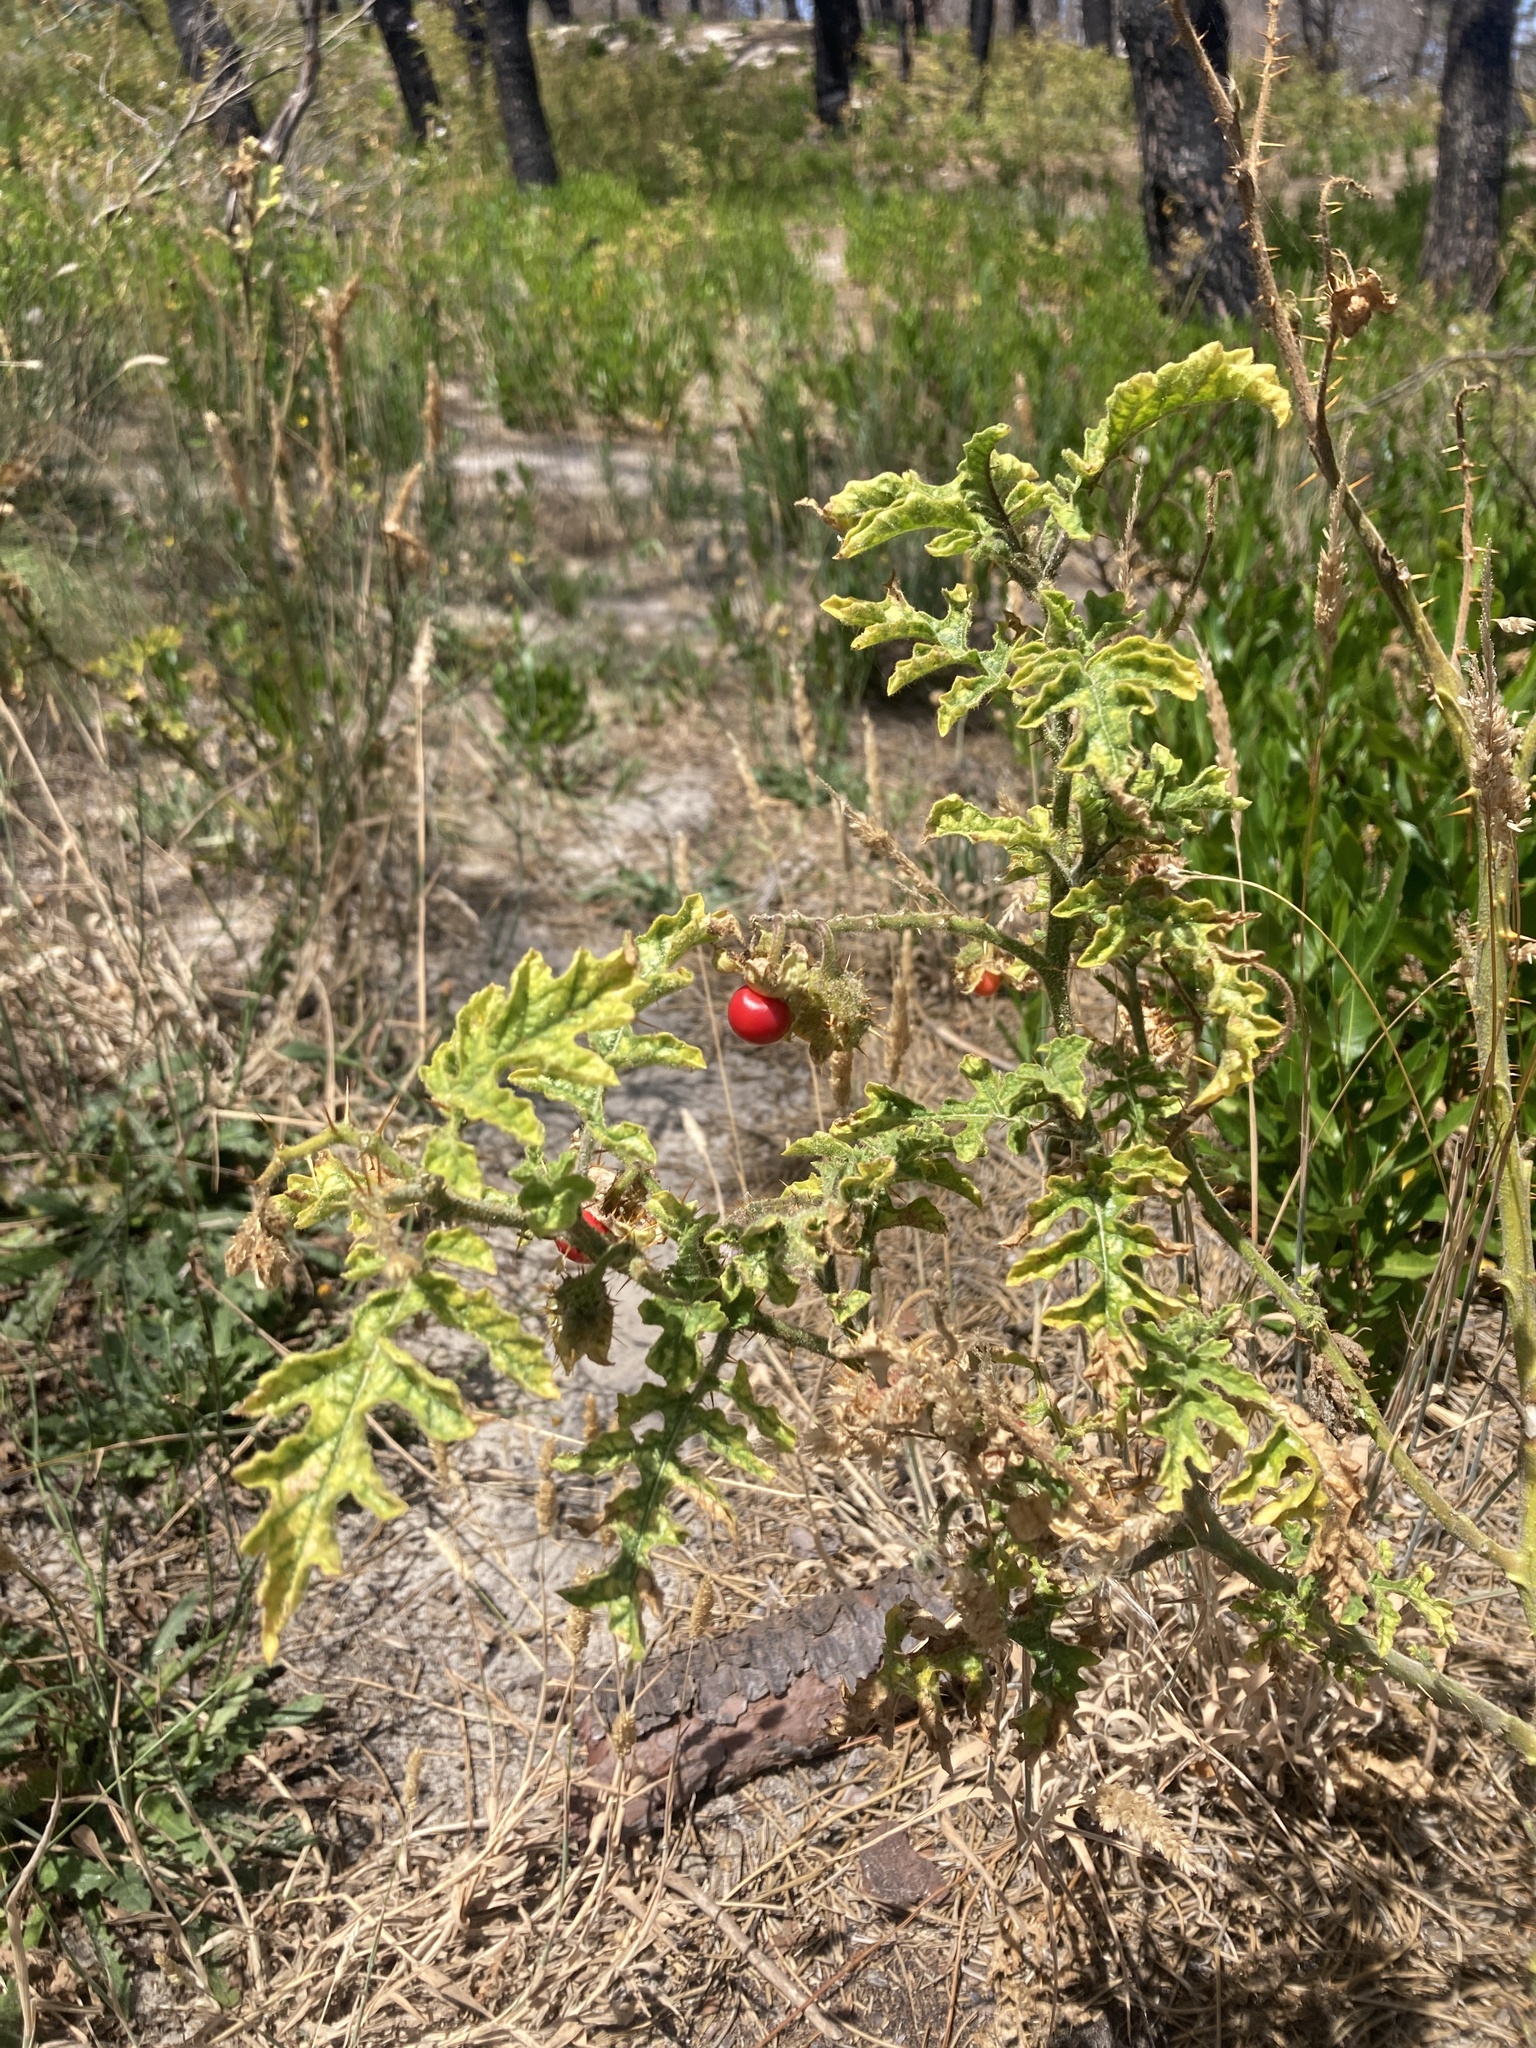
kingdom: Plantae
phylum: Tracheophyta
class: Magnoliopsida
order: Solanales
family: Solanaceae
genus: Solanum
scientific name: Solanum sisymbriifolium
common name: Red buffalo-bur
